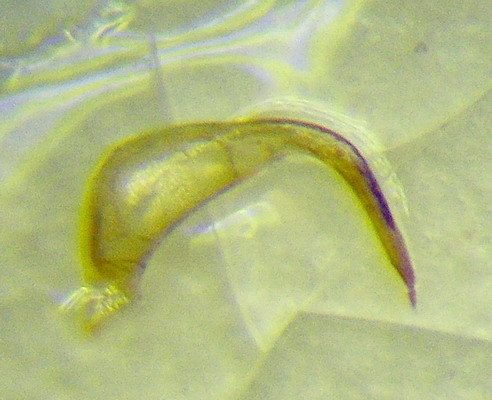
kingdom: Animalia
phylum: Arthropoda
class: Insecta
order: Hemiptera
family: Corixidae
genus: Sigara
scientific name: Sigara striata
